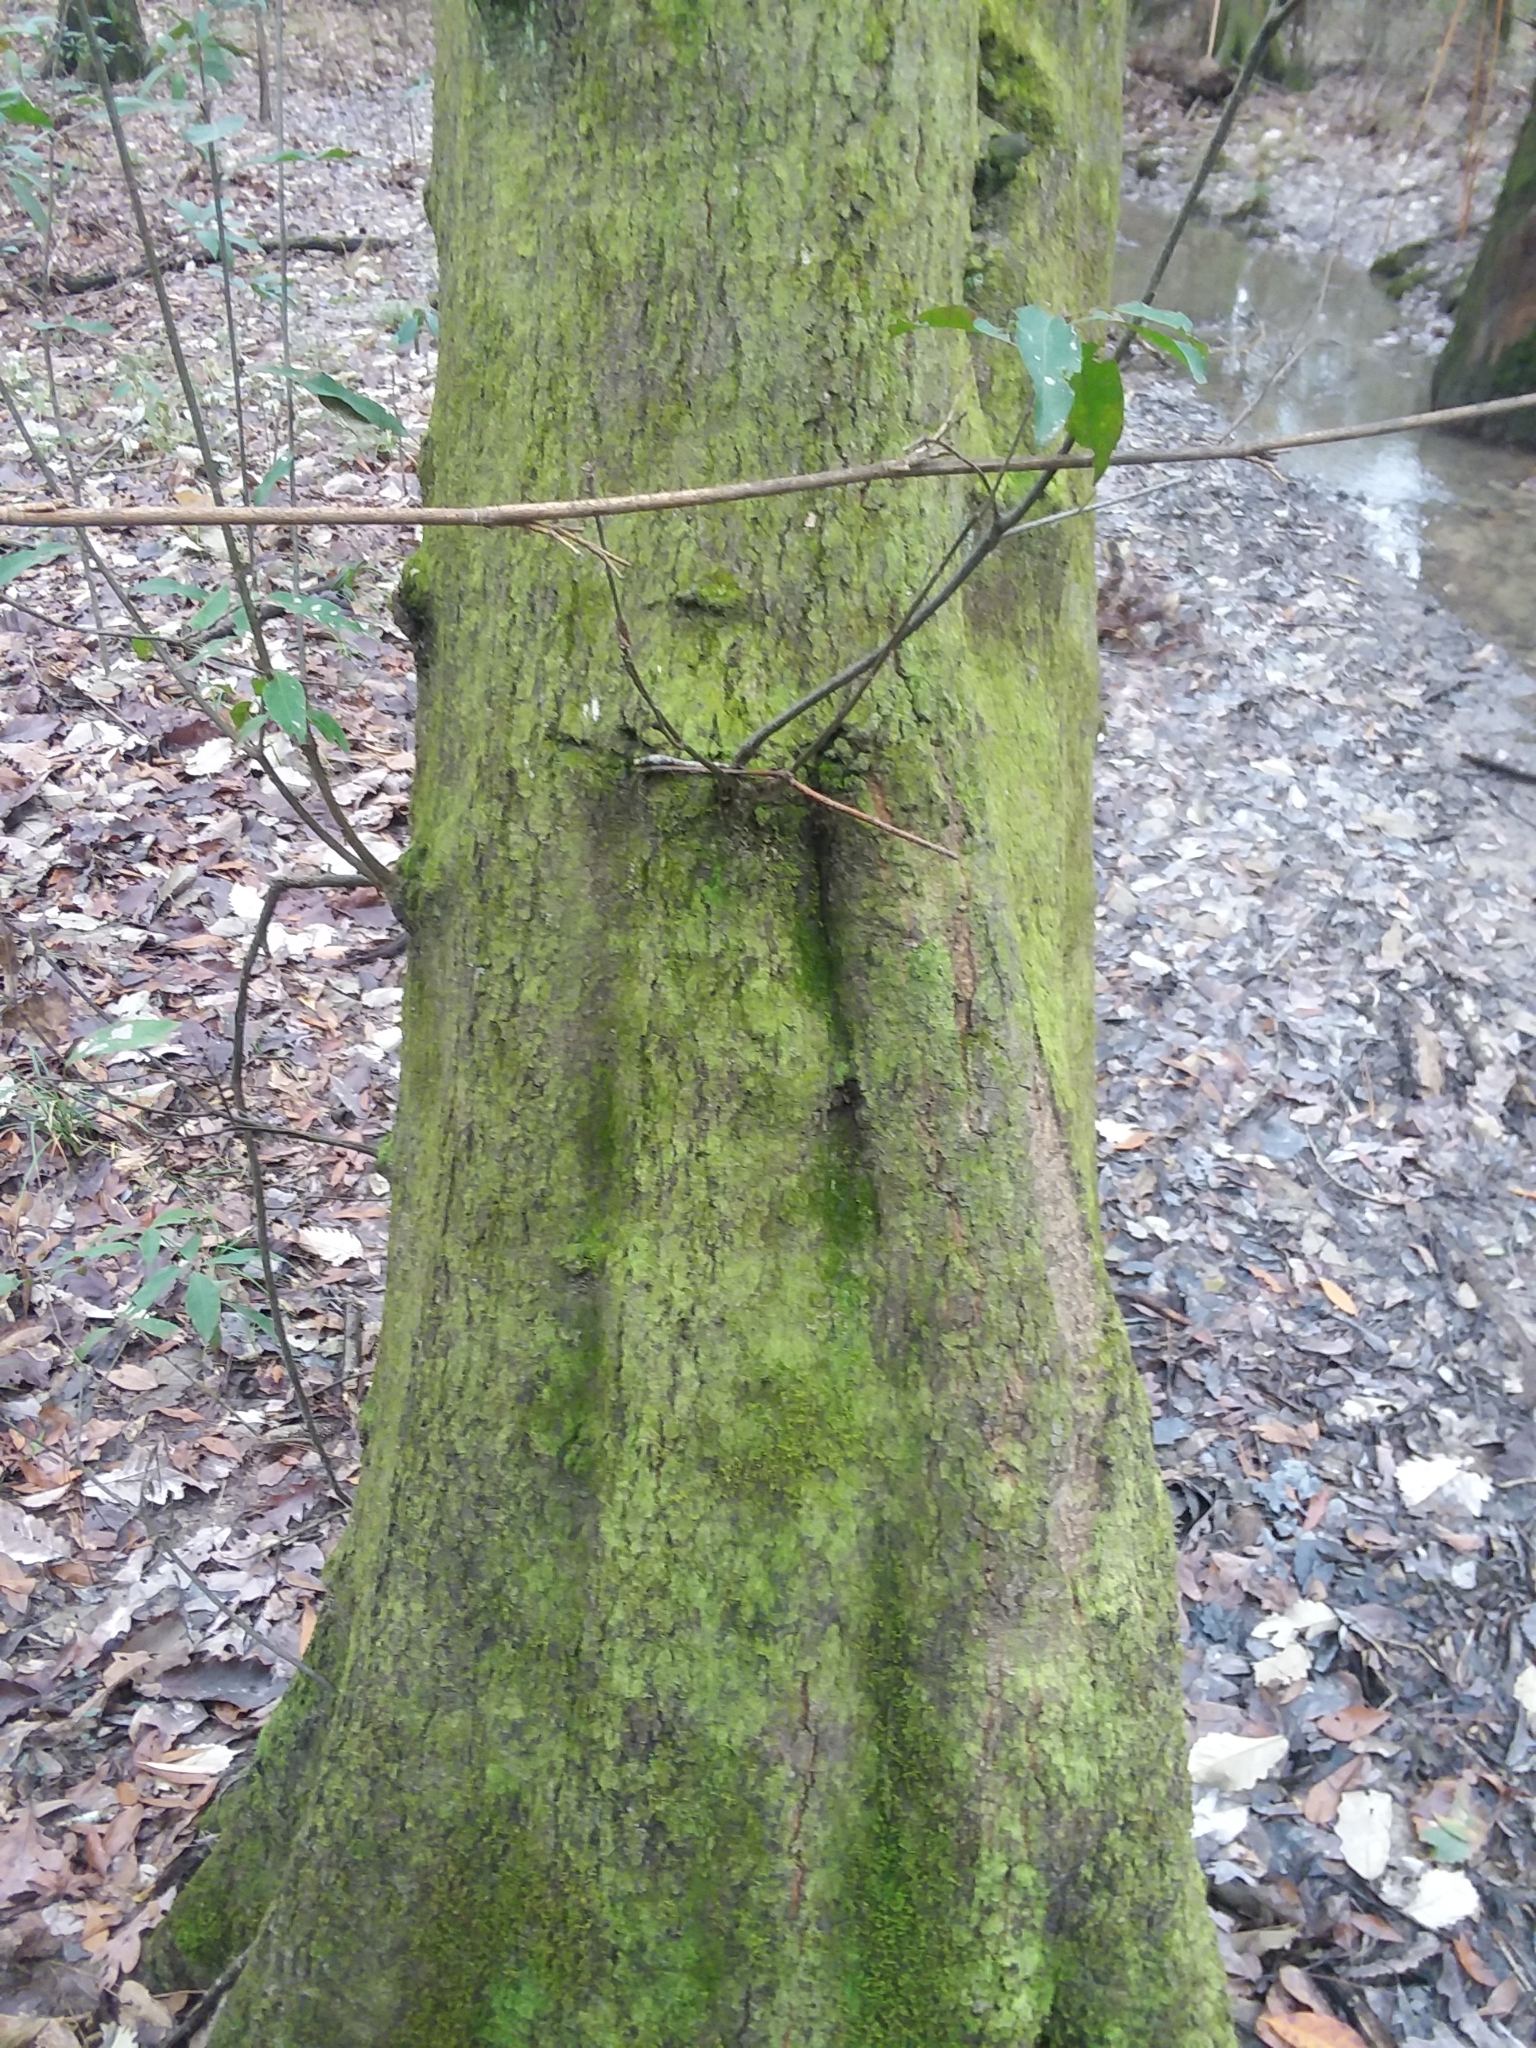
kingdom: Plantae
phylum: Tracheophyta
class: Magnoliopsida
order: Fagales
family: Fagaceae
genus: Quercus
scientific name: Quercus laurifolia
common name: Swamp laurel oak
